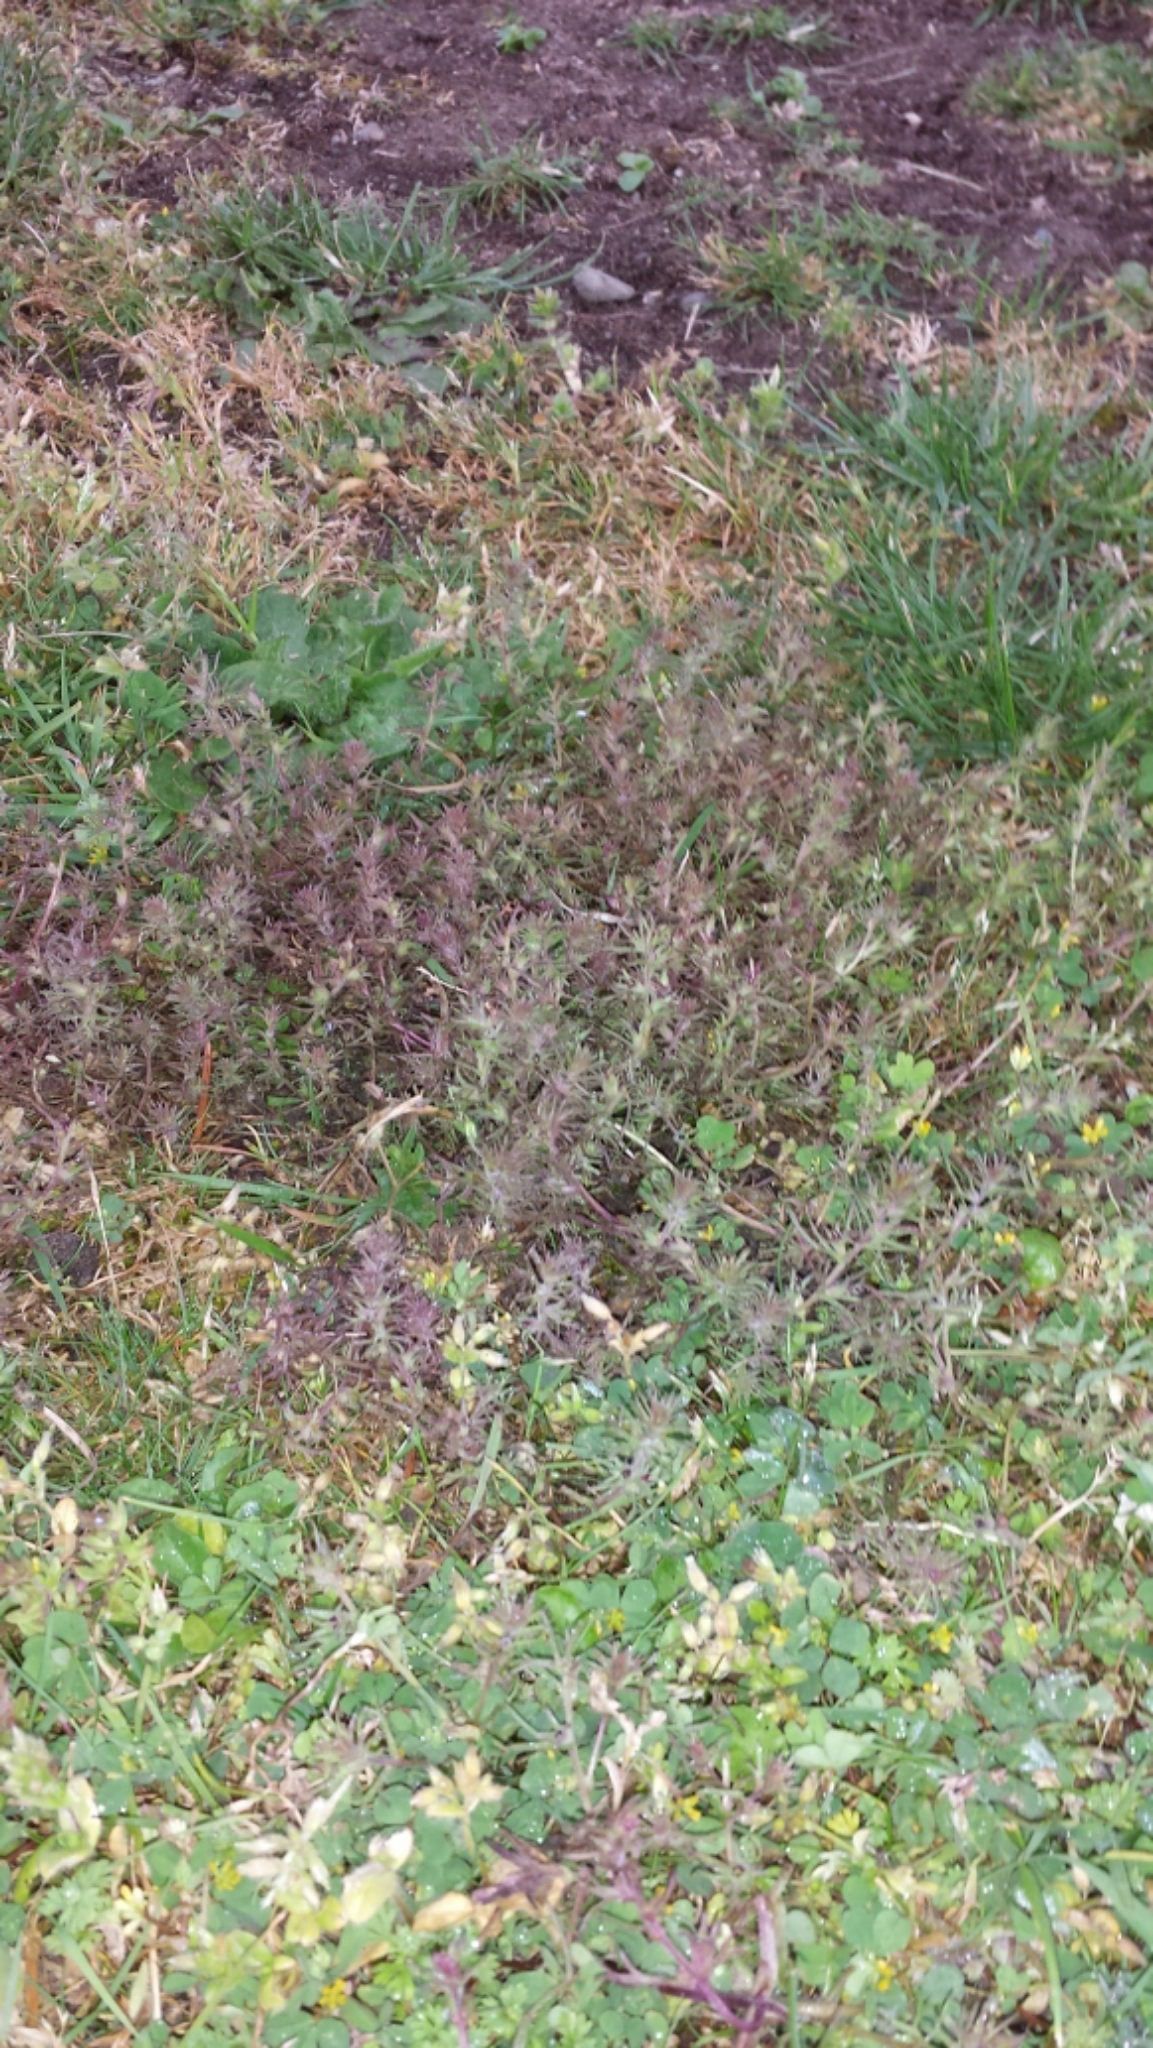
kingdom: Plantae
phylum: Tracheophyta
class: Magnoliopsida
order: Lamiales
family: Orobanchaceae
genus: Triphysaria
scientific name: Triphysaria pusilla
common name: Dwarf false owl-clover
